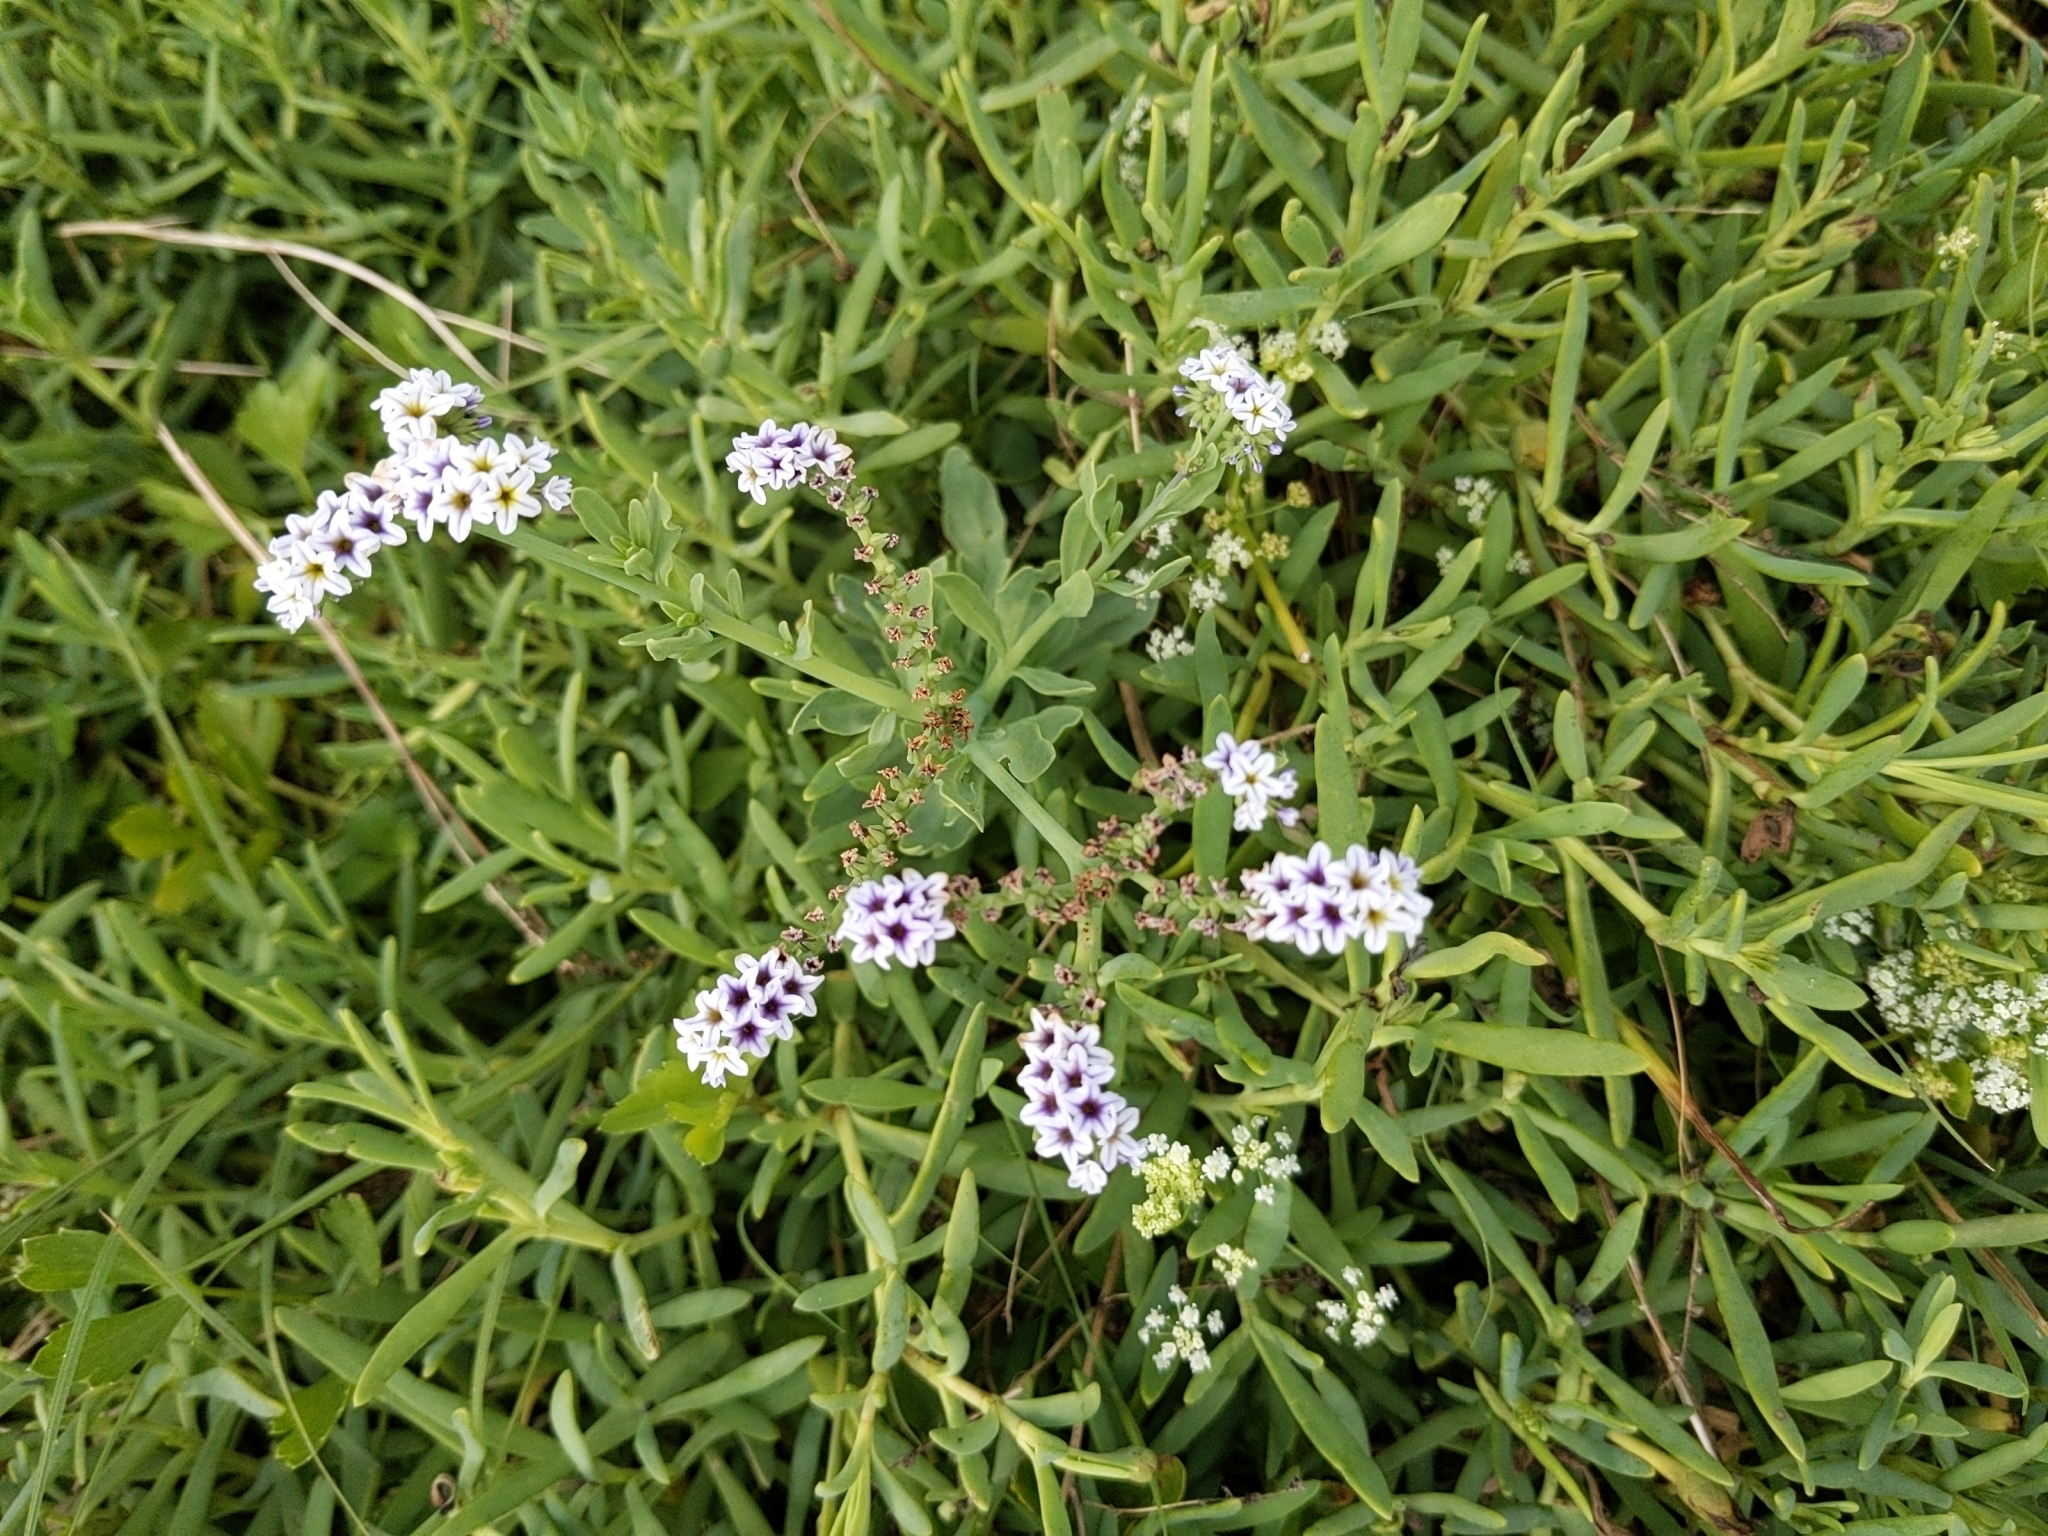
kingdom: Plantae
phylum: Tracheophyta
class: Magnoliopsida
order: Boraginales
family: Heliotropiaceae
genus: Heliotropium
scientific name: Heliotropium curassavicum
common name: Seaside heliotrope
